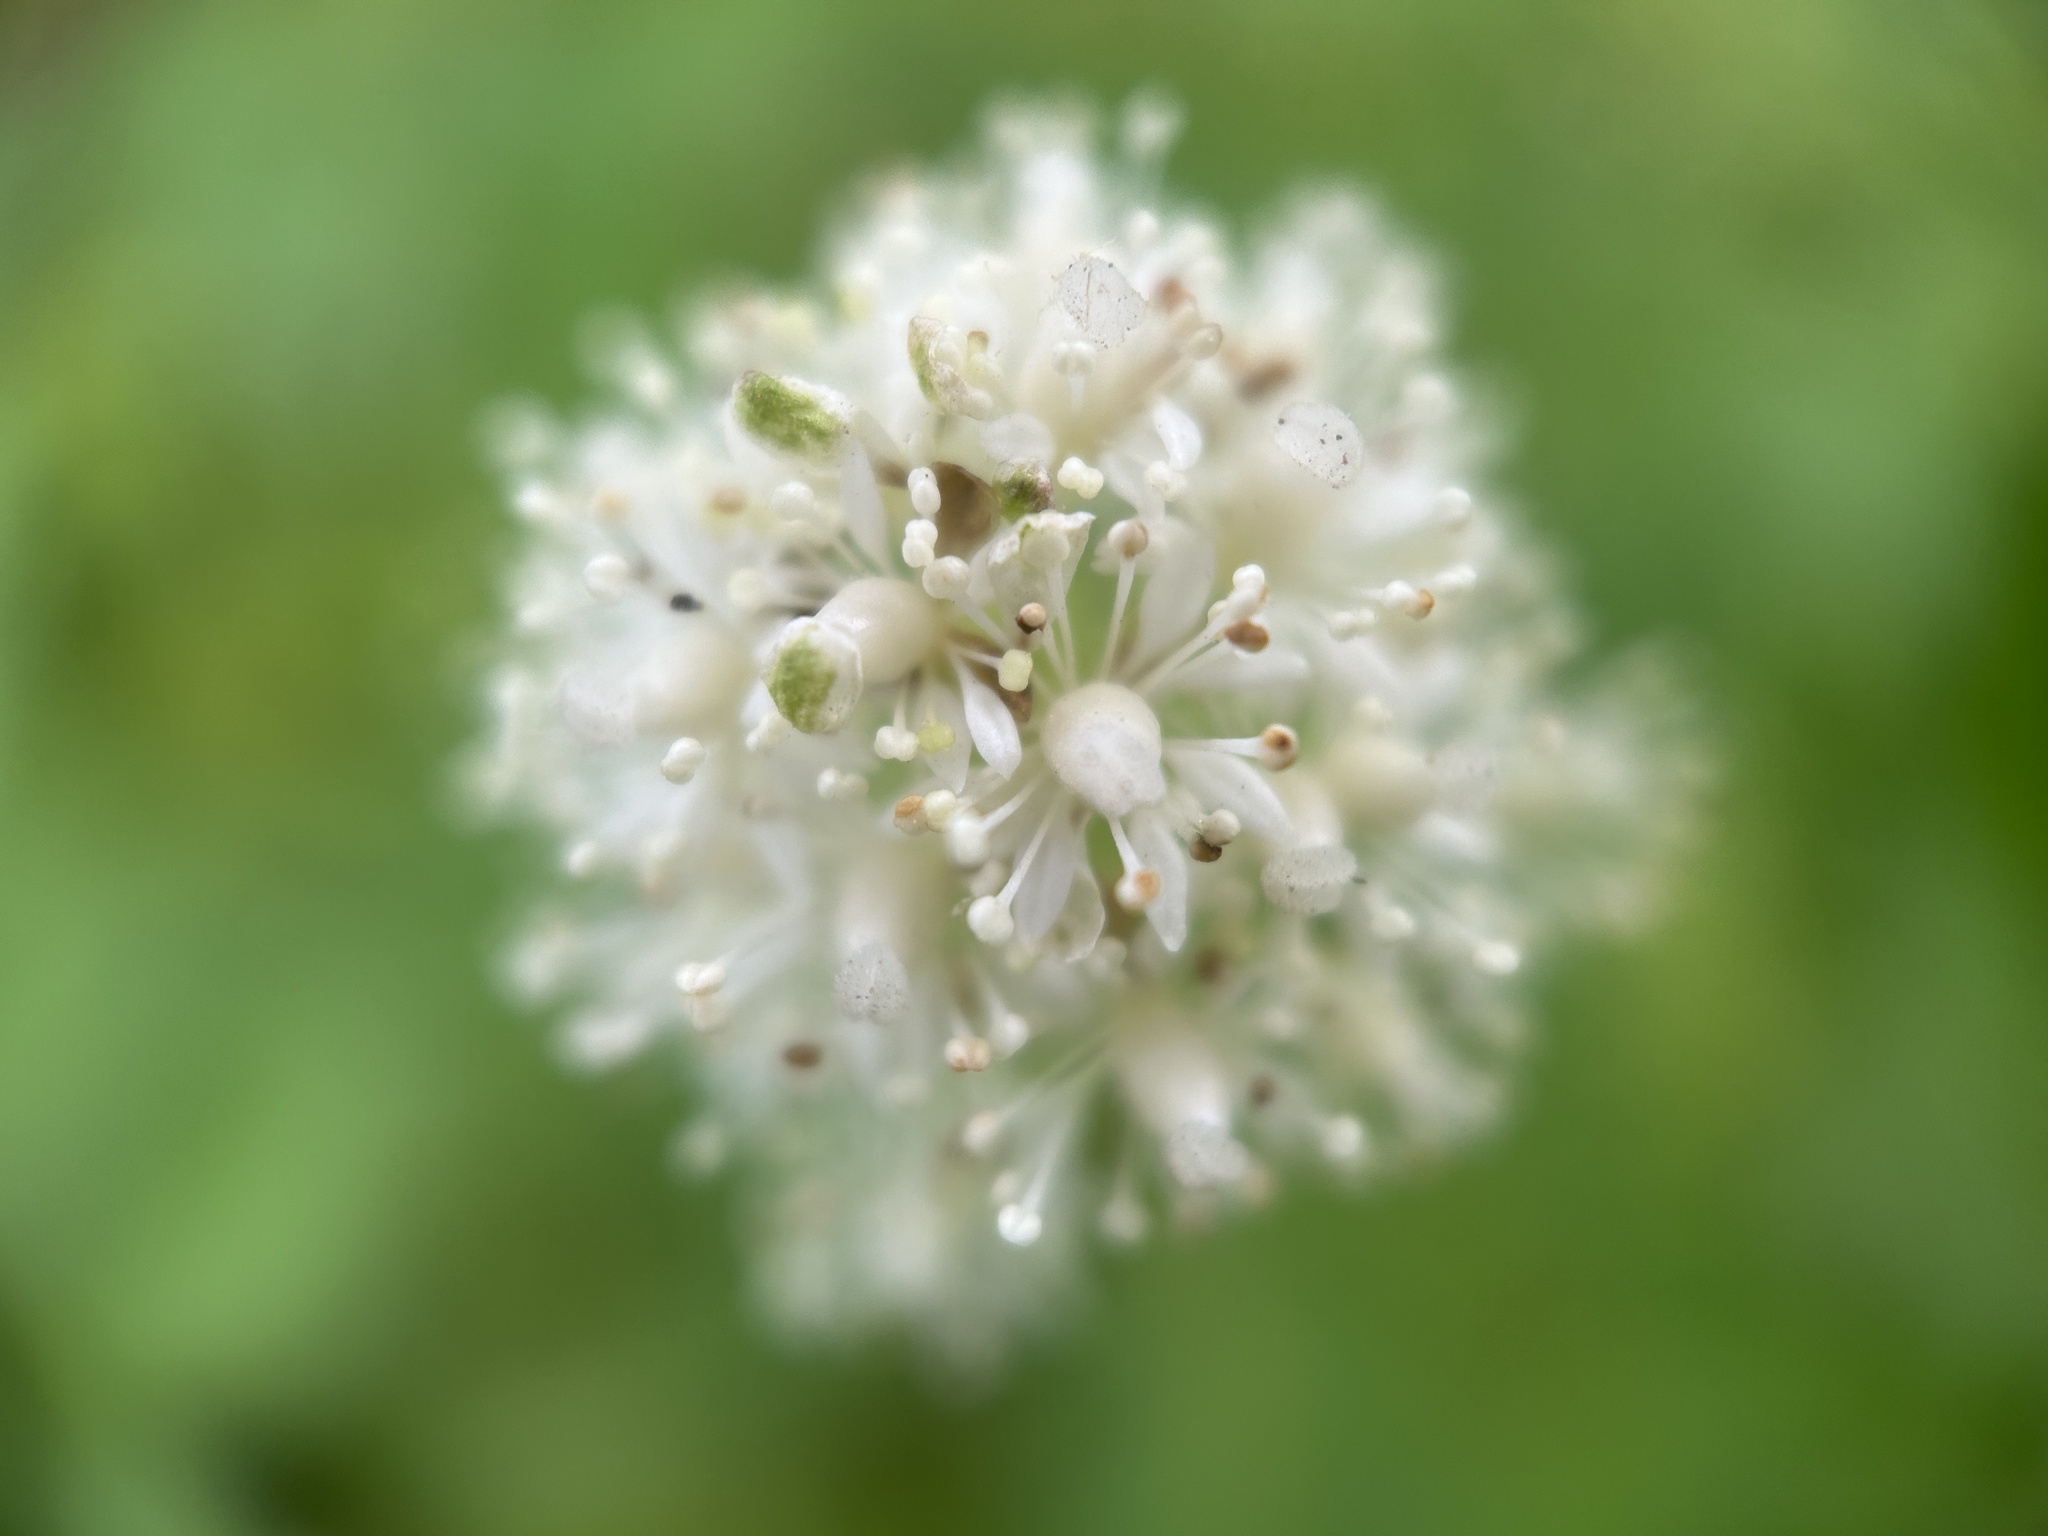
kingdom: Plantae
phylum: Tracheophyta
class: Magnoliopsida
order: Ranunculales
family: Ranunculaceae
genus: Actaea
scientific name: Actaea rubra
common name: Red baneberry
